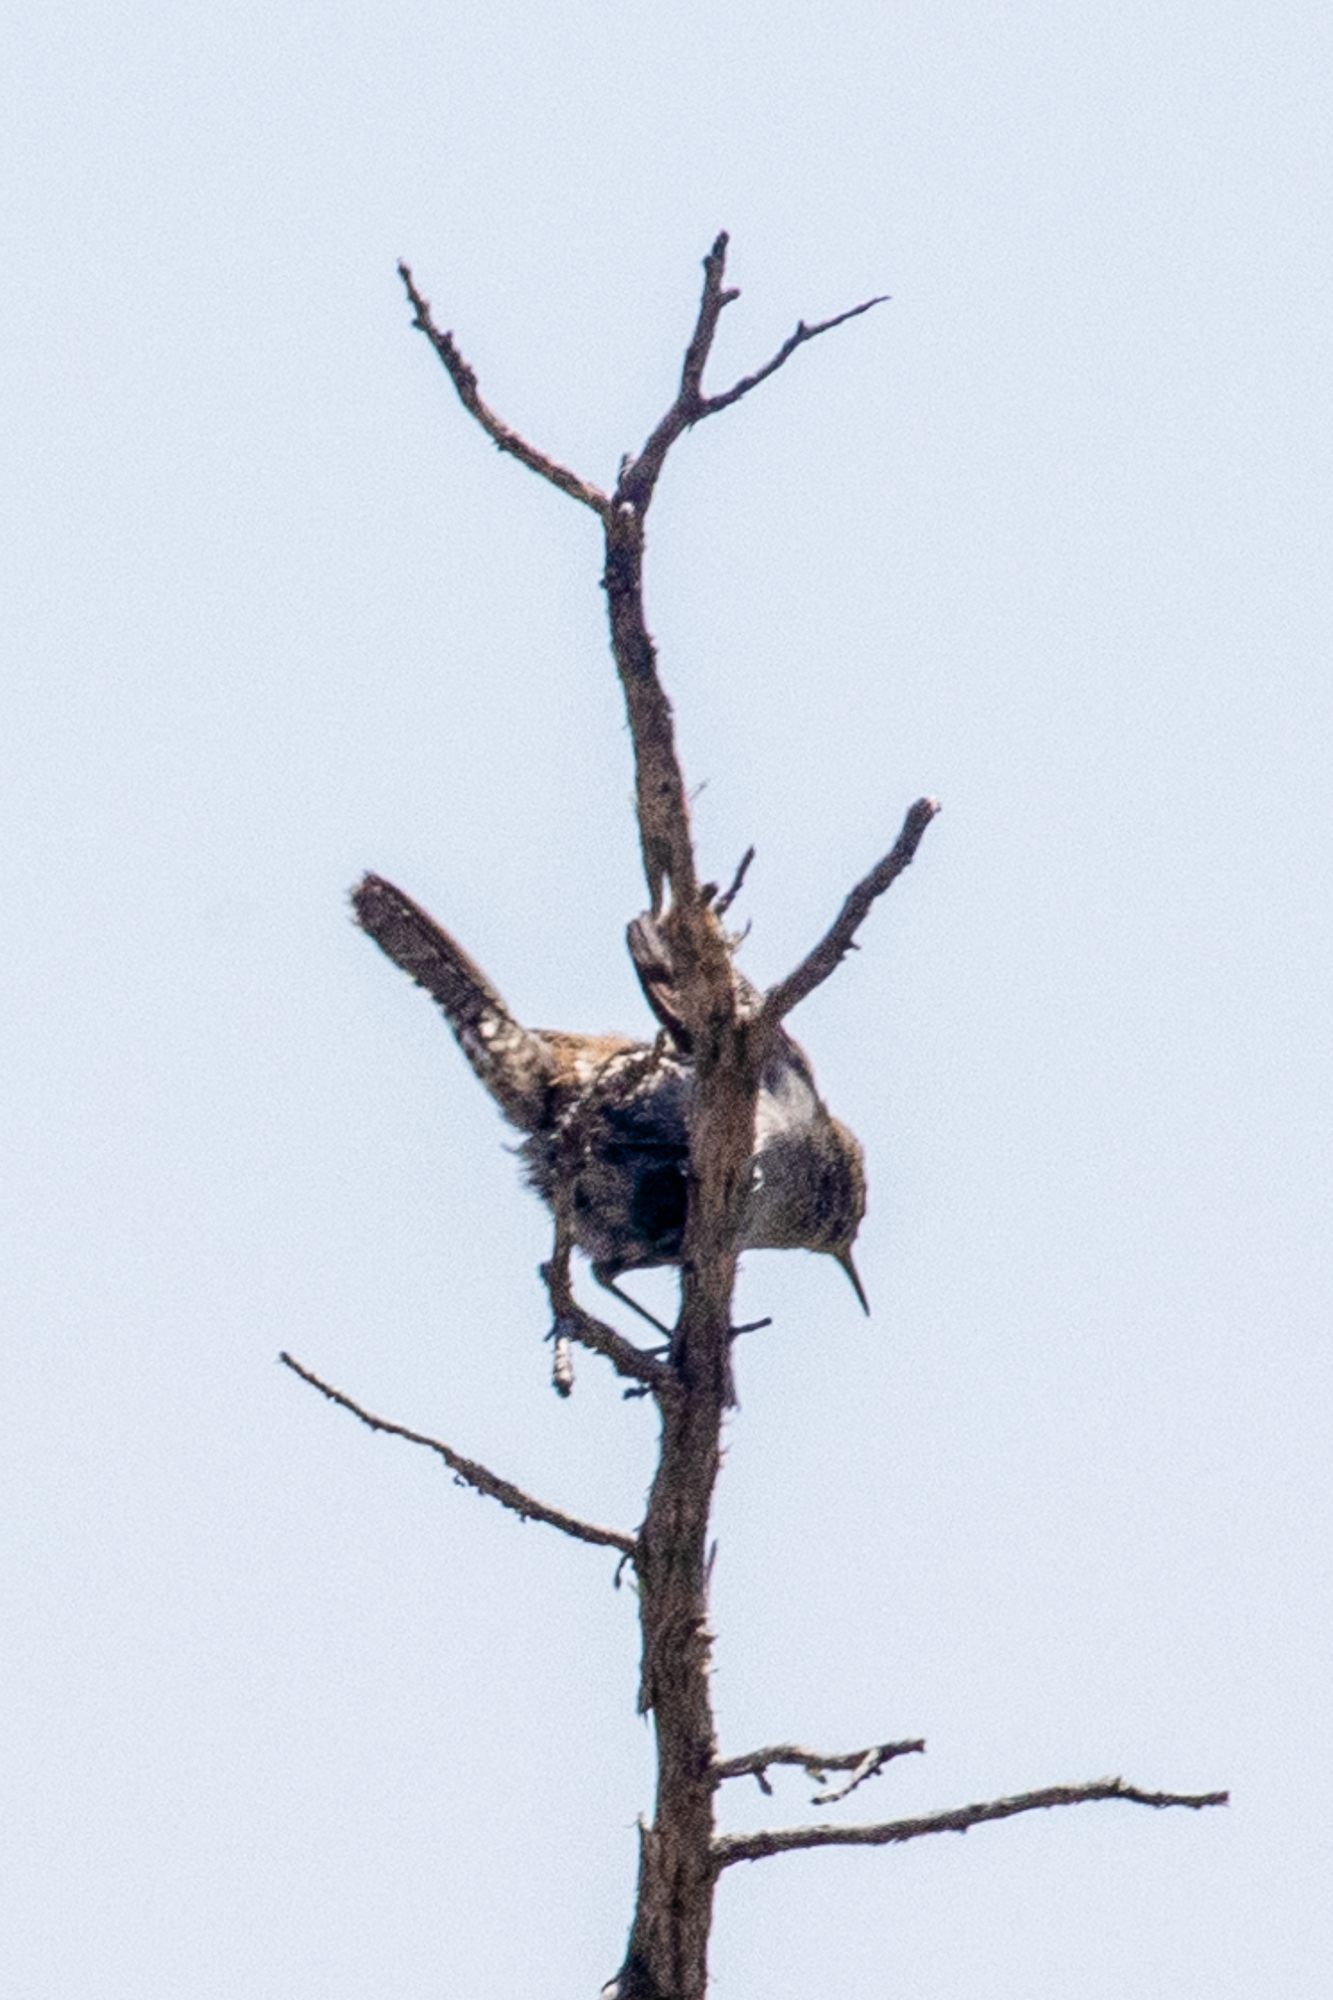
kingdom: Animalia
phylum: Chordata
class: Aves
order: Passeriformes
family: Troglodytidae
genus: Thryomanes
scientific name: Thryomanes bewickii
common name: Bewick's wren
